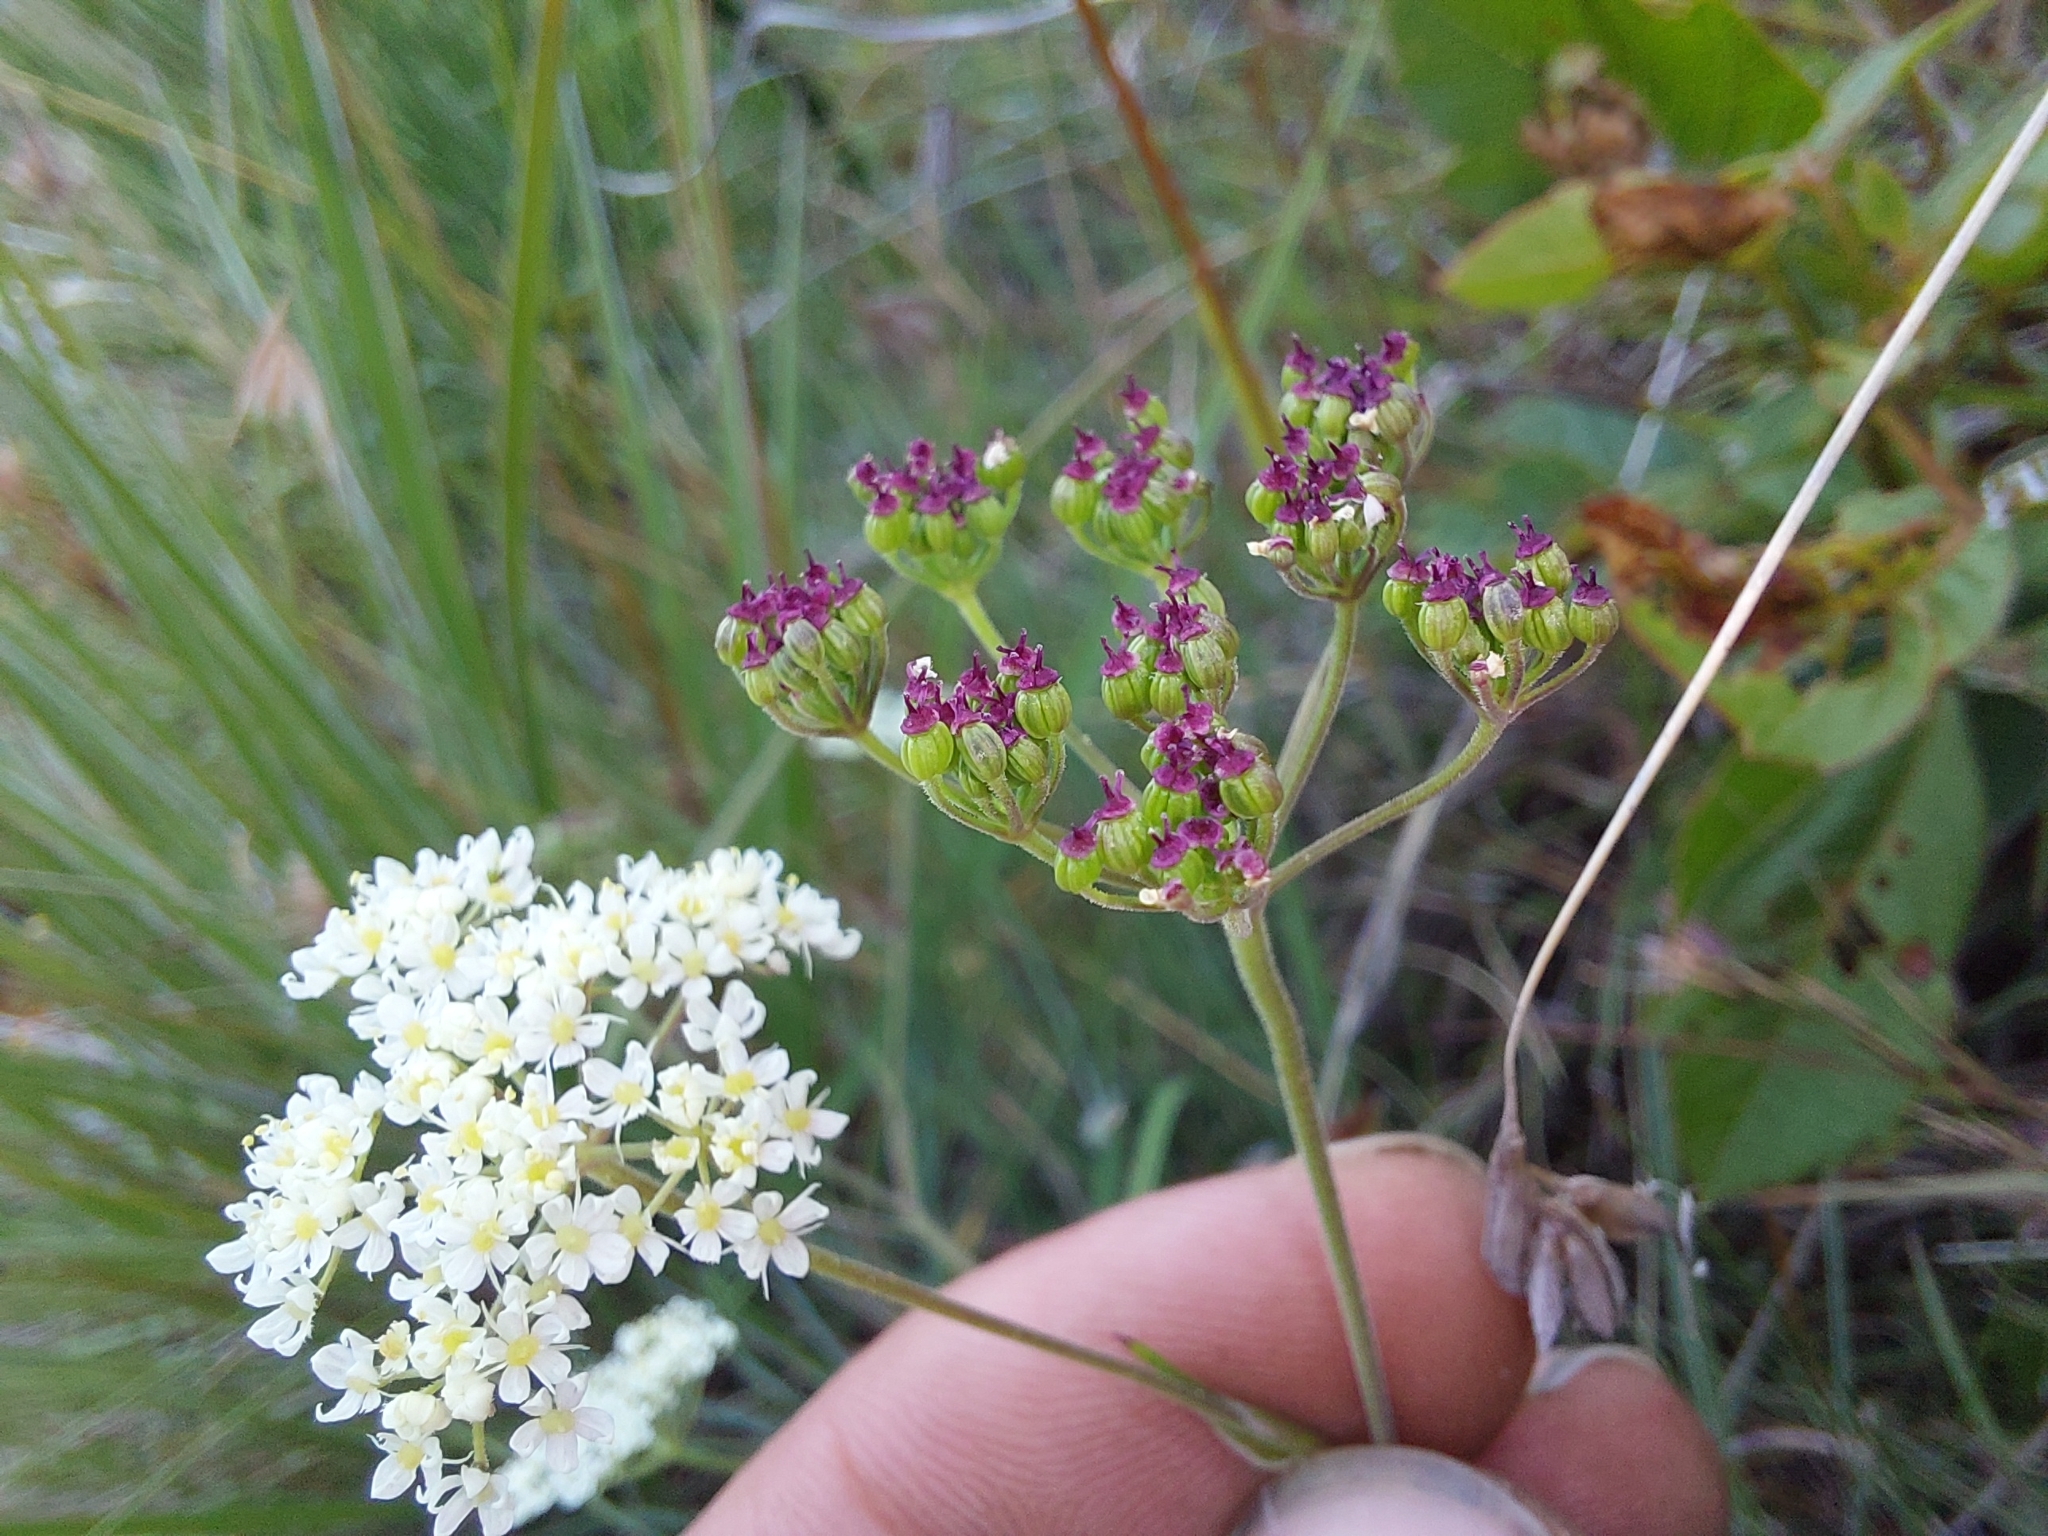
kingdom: Plantae
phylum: Tracheophyta
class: Magnoliopsida
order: Apiales
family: Apiaceae
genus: Pimpinella
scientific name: Pimpinella caffra
